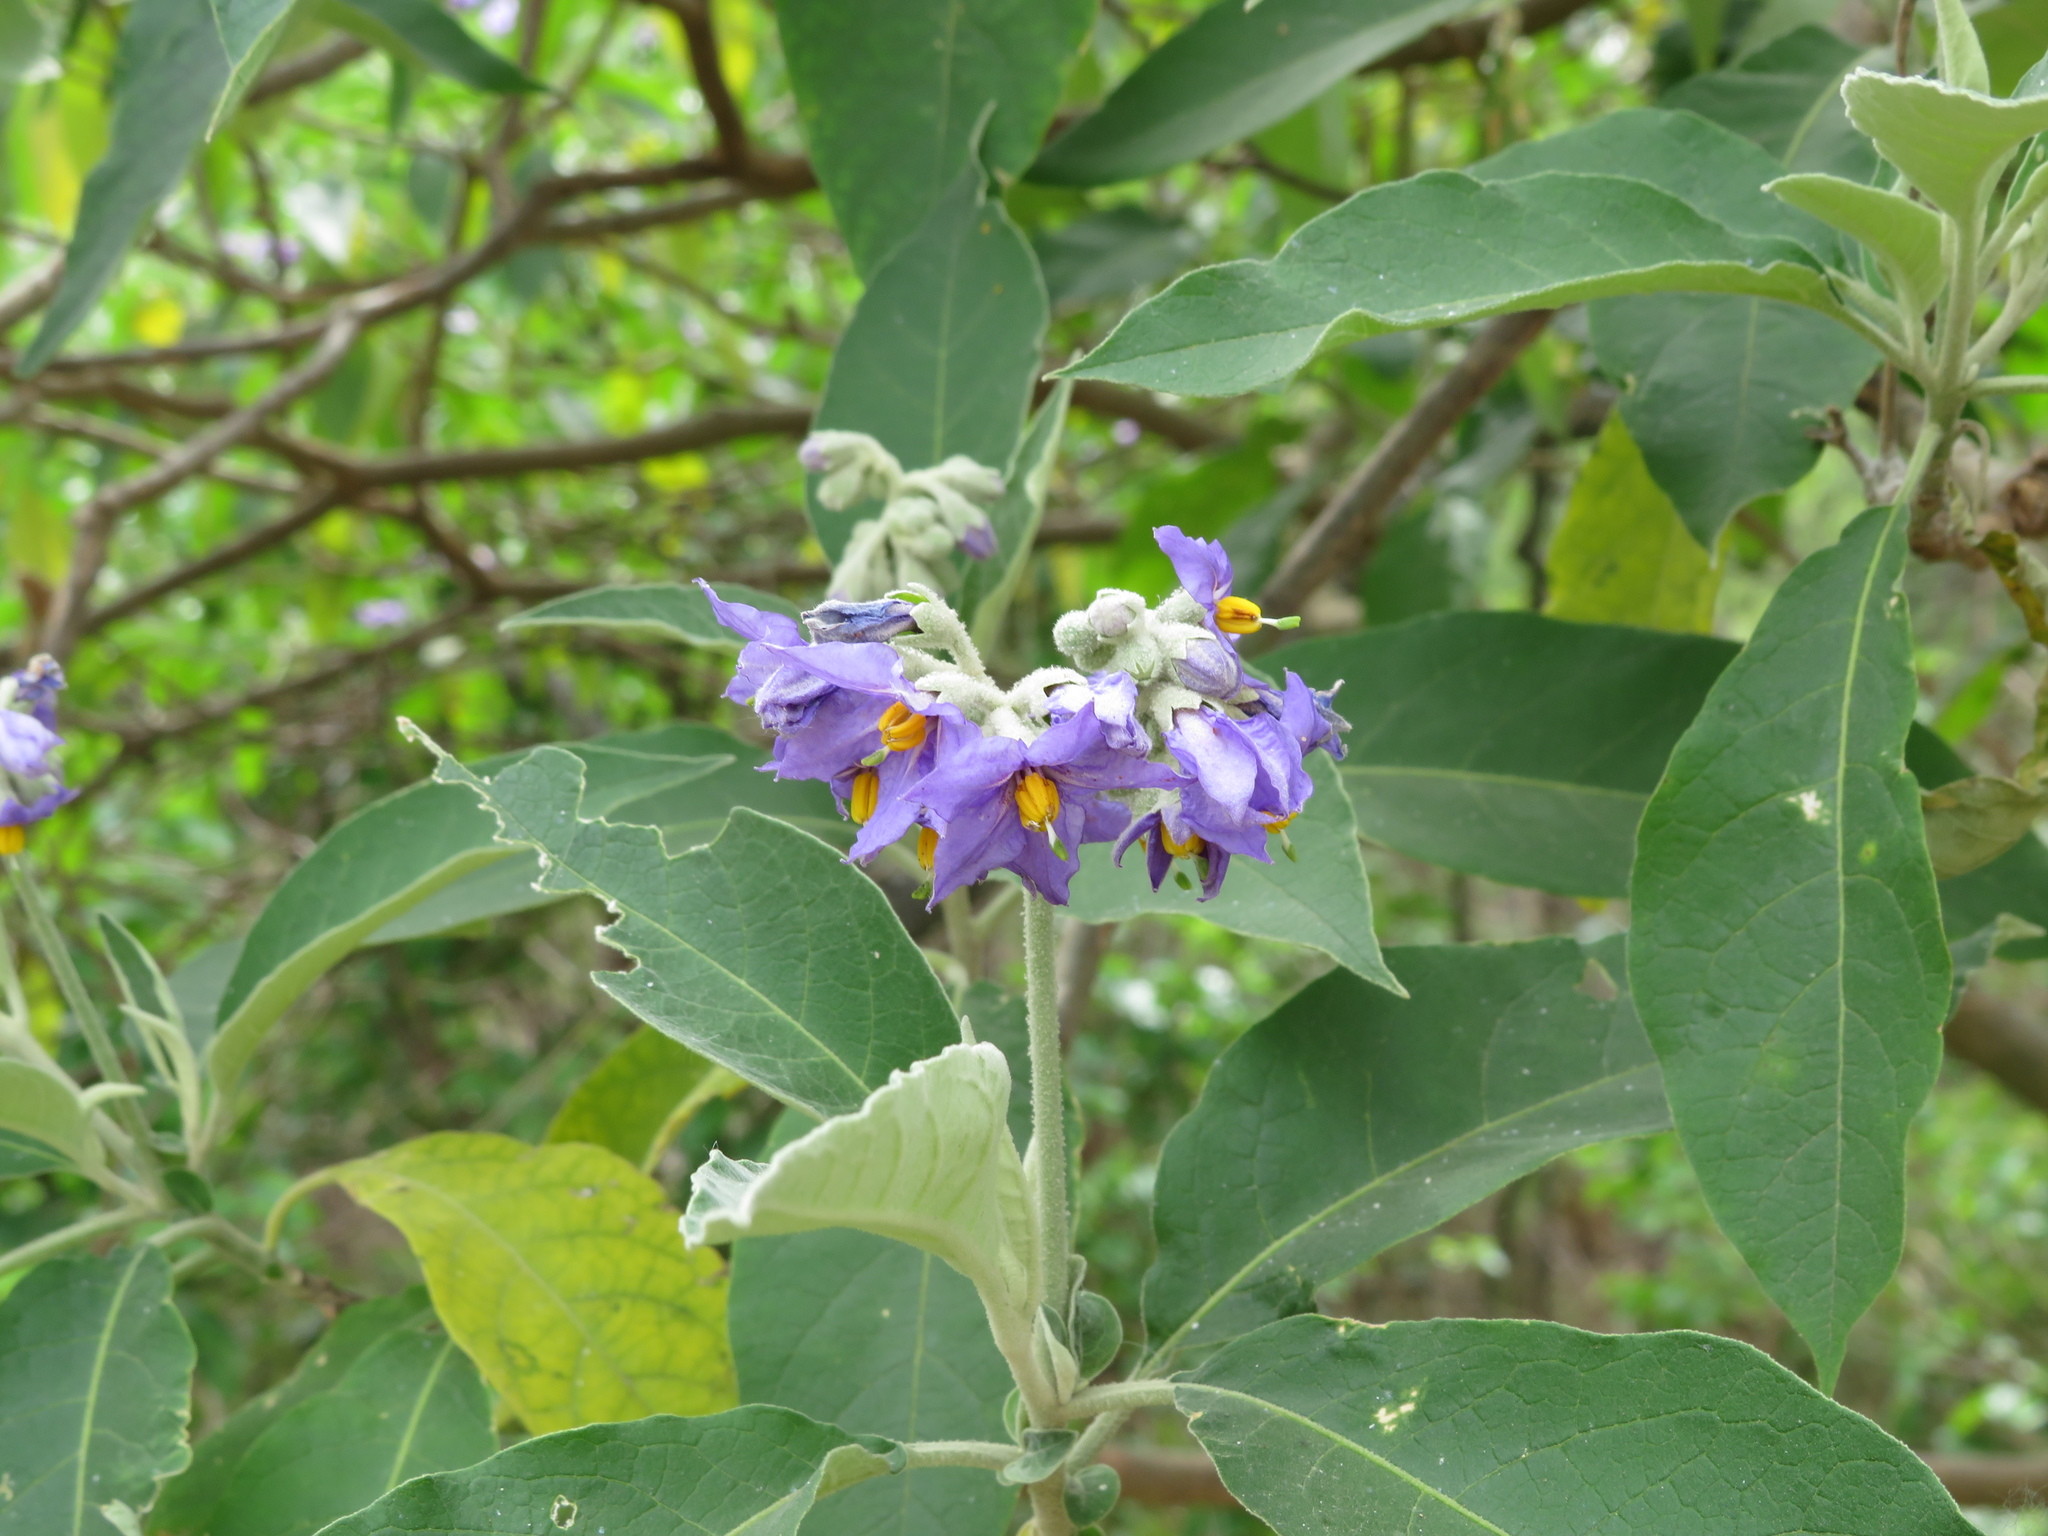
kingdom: Plantae
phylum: Tracheophyta
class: Magnoliopsida
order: Solanales
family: Solanaceae
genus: Solanum
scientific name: Solanum granulosoleprosum
